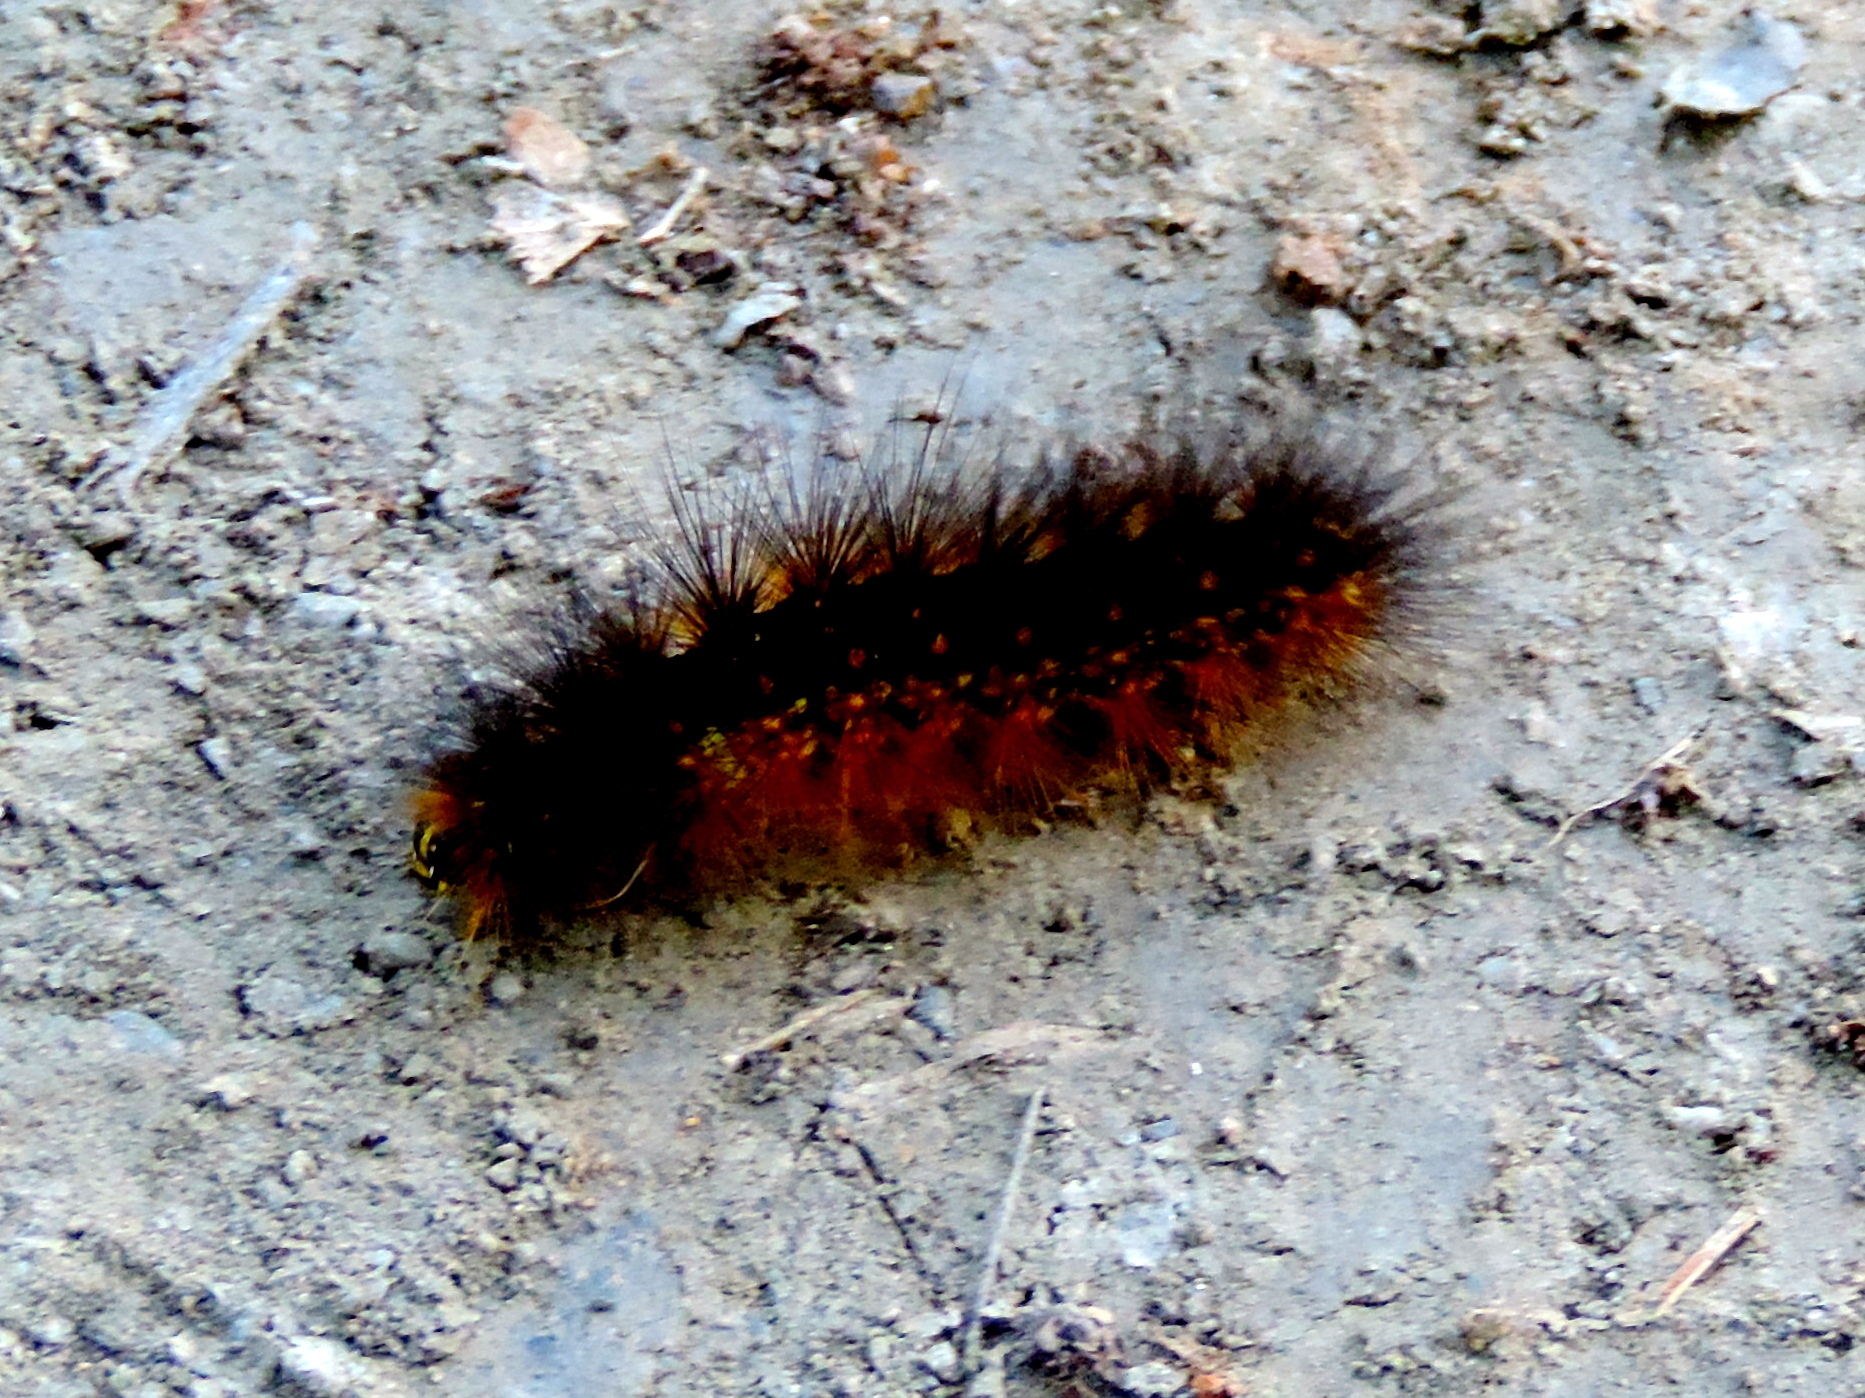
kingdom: Animalia
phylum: Arthropoda
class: Insecta
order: Lepidoptera
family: Erebidae
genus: Estigmene
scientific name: Estigmene acrea
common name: Salt marsh moth
